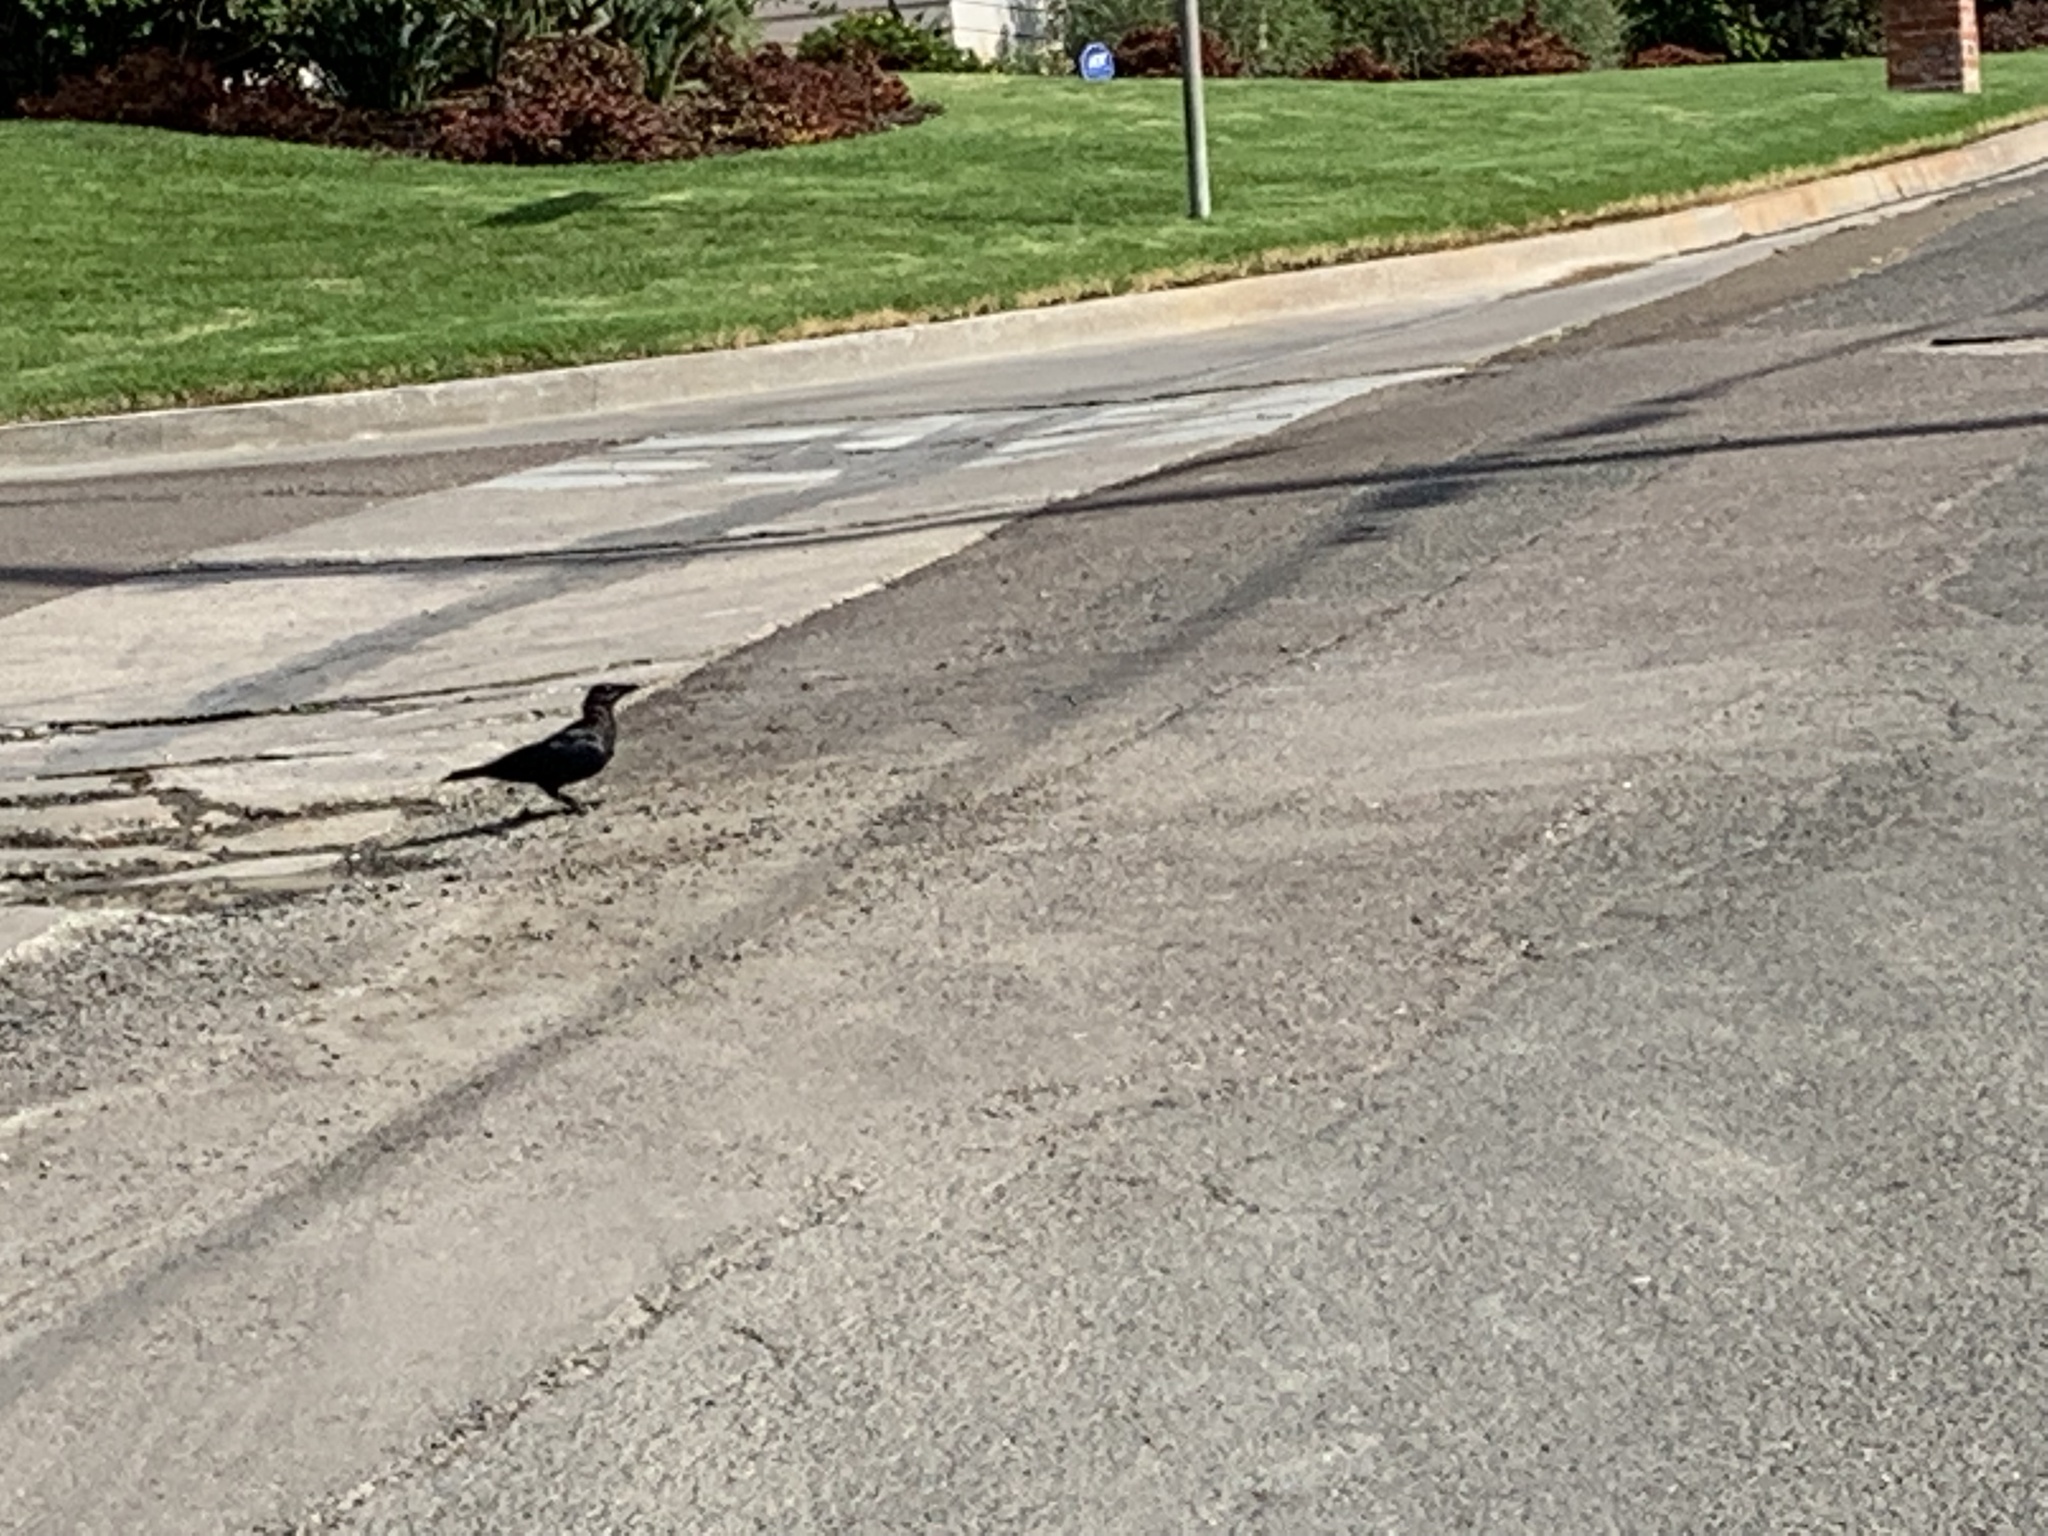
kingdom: Animalia
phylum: Chordata
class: Aves
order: Passeriformes
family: Corvidae
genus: Corvus
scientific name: Corvus brachyrhynchos
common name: American crow
